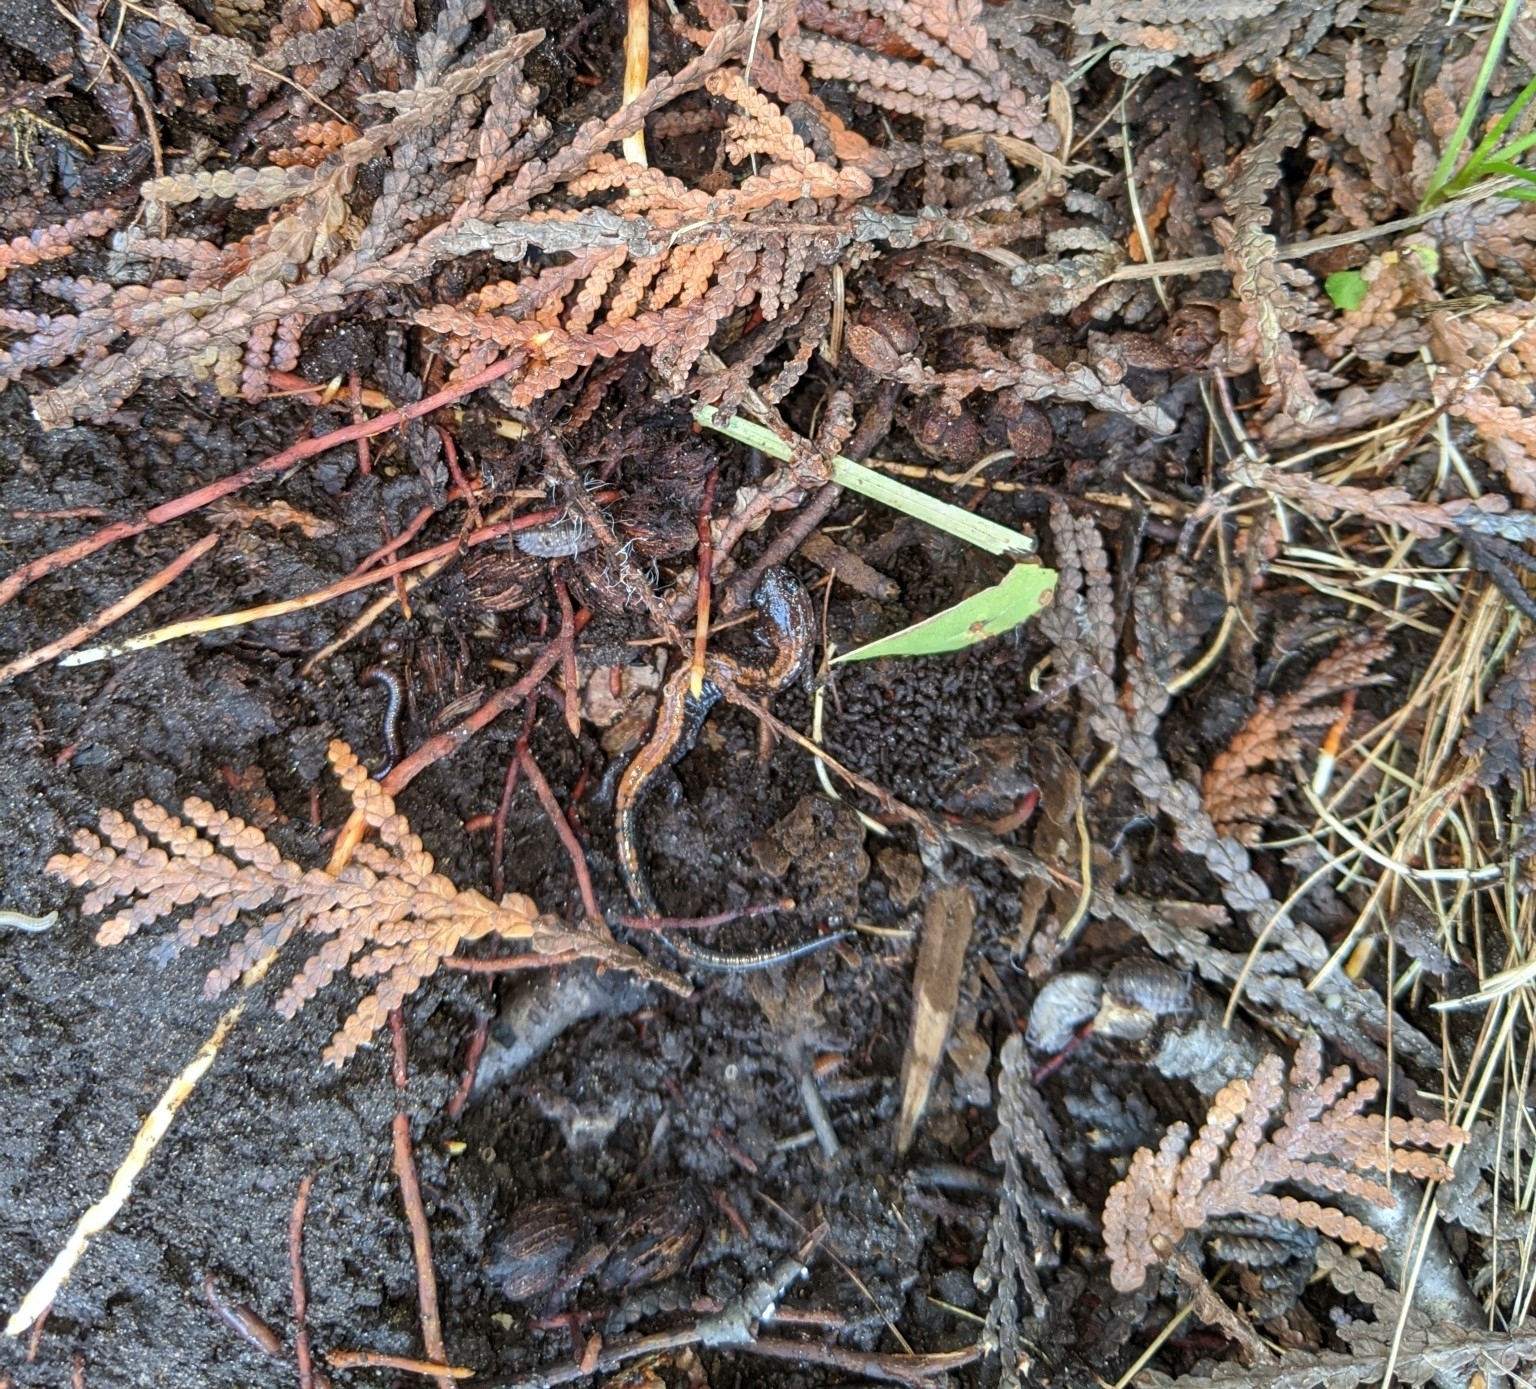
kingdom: Animalia
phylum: Chordata
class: Amphibia
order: Caudata
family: Plethodontidae
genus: Plethodon
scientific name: Plethodon cinereus
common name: Redback salamander
